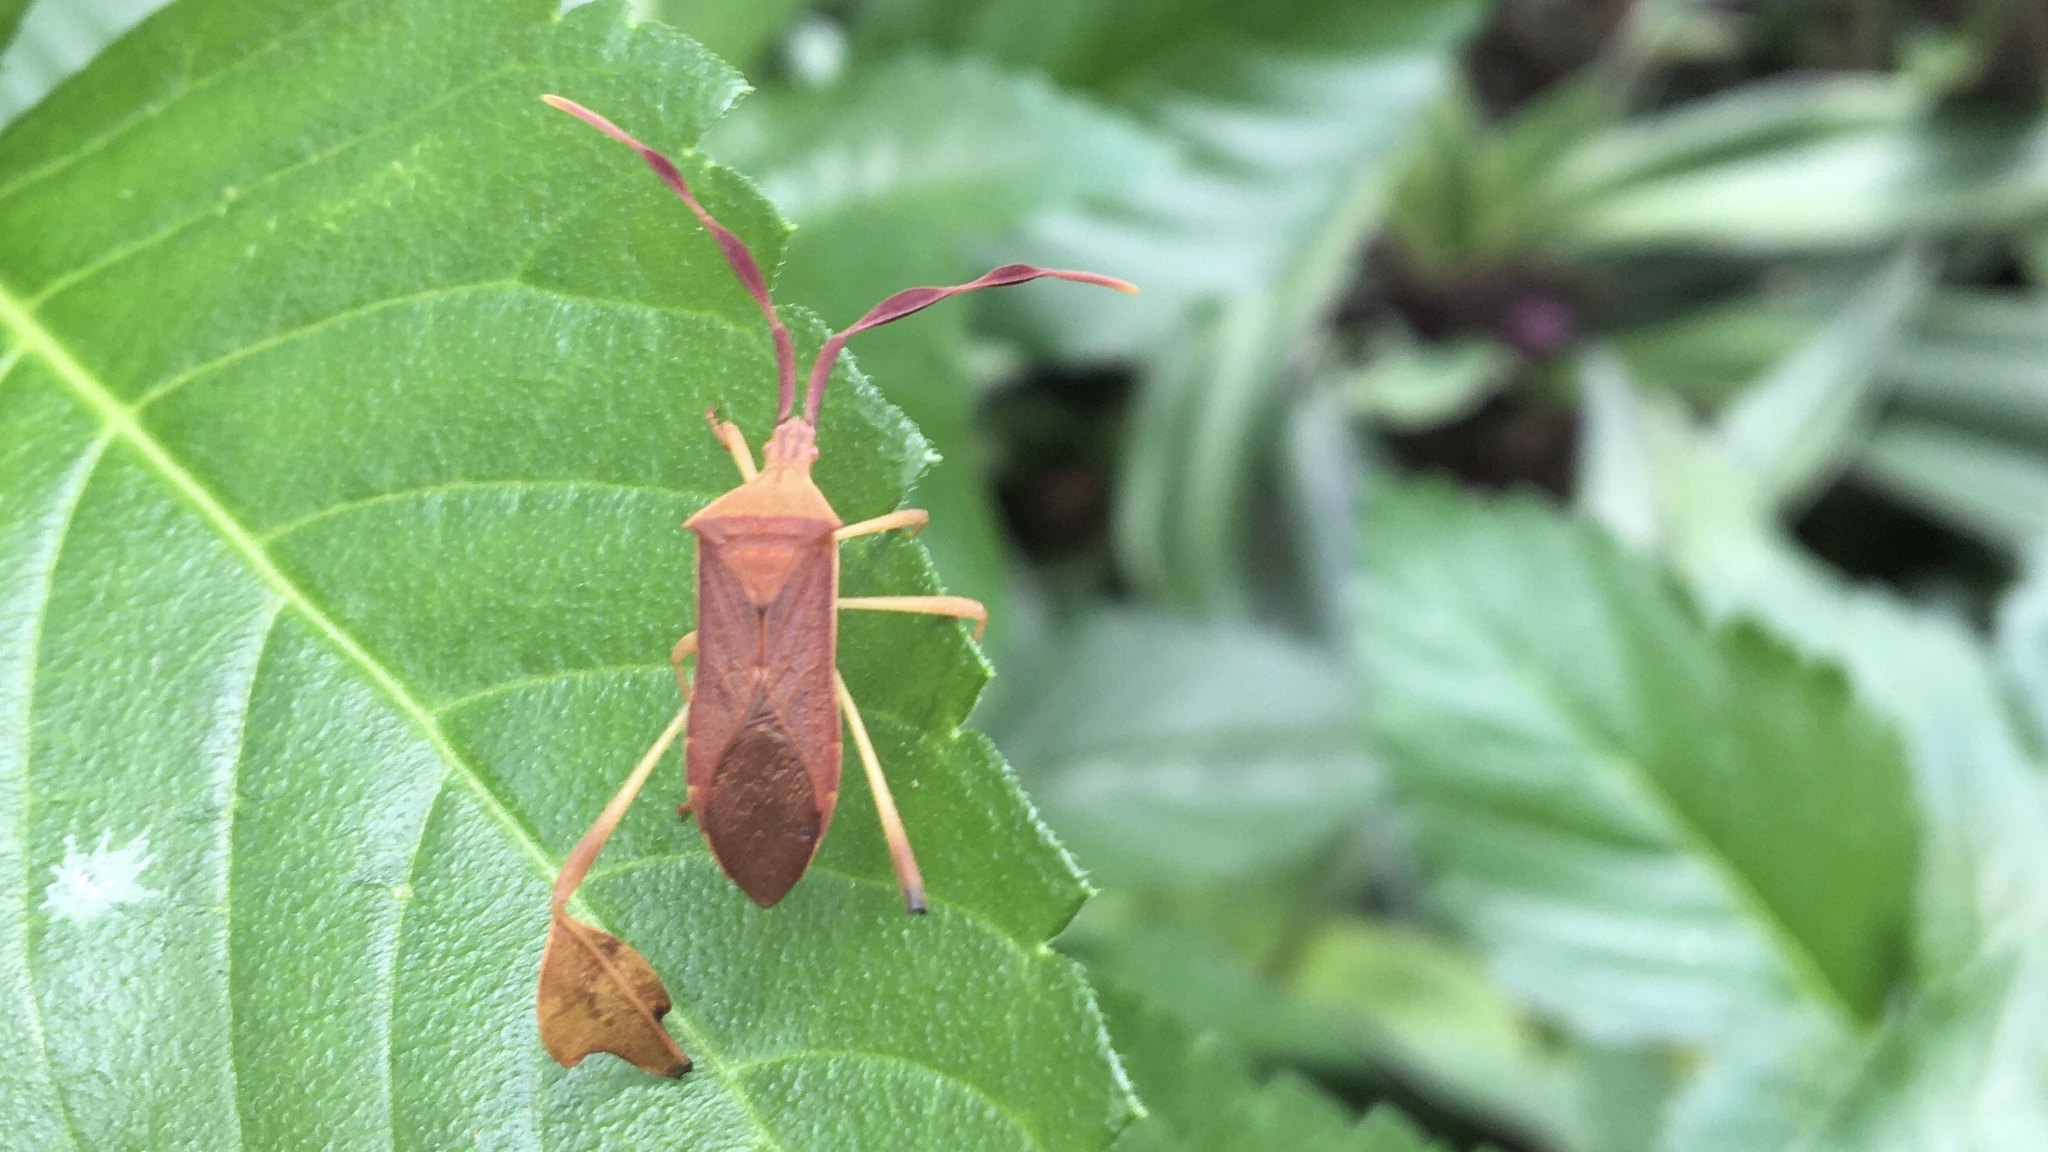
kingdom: Animalia
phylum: Arthropoda
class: Insecta
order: Hemiptera
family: Coreidae
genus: Chondrocera
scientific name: Chondrocera laticornis
